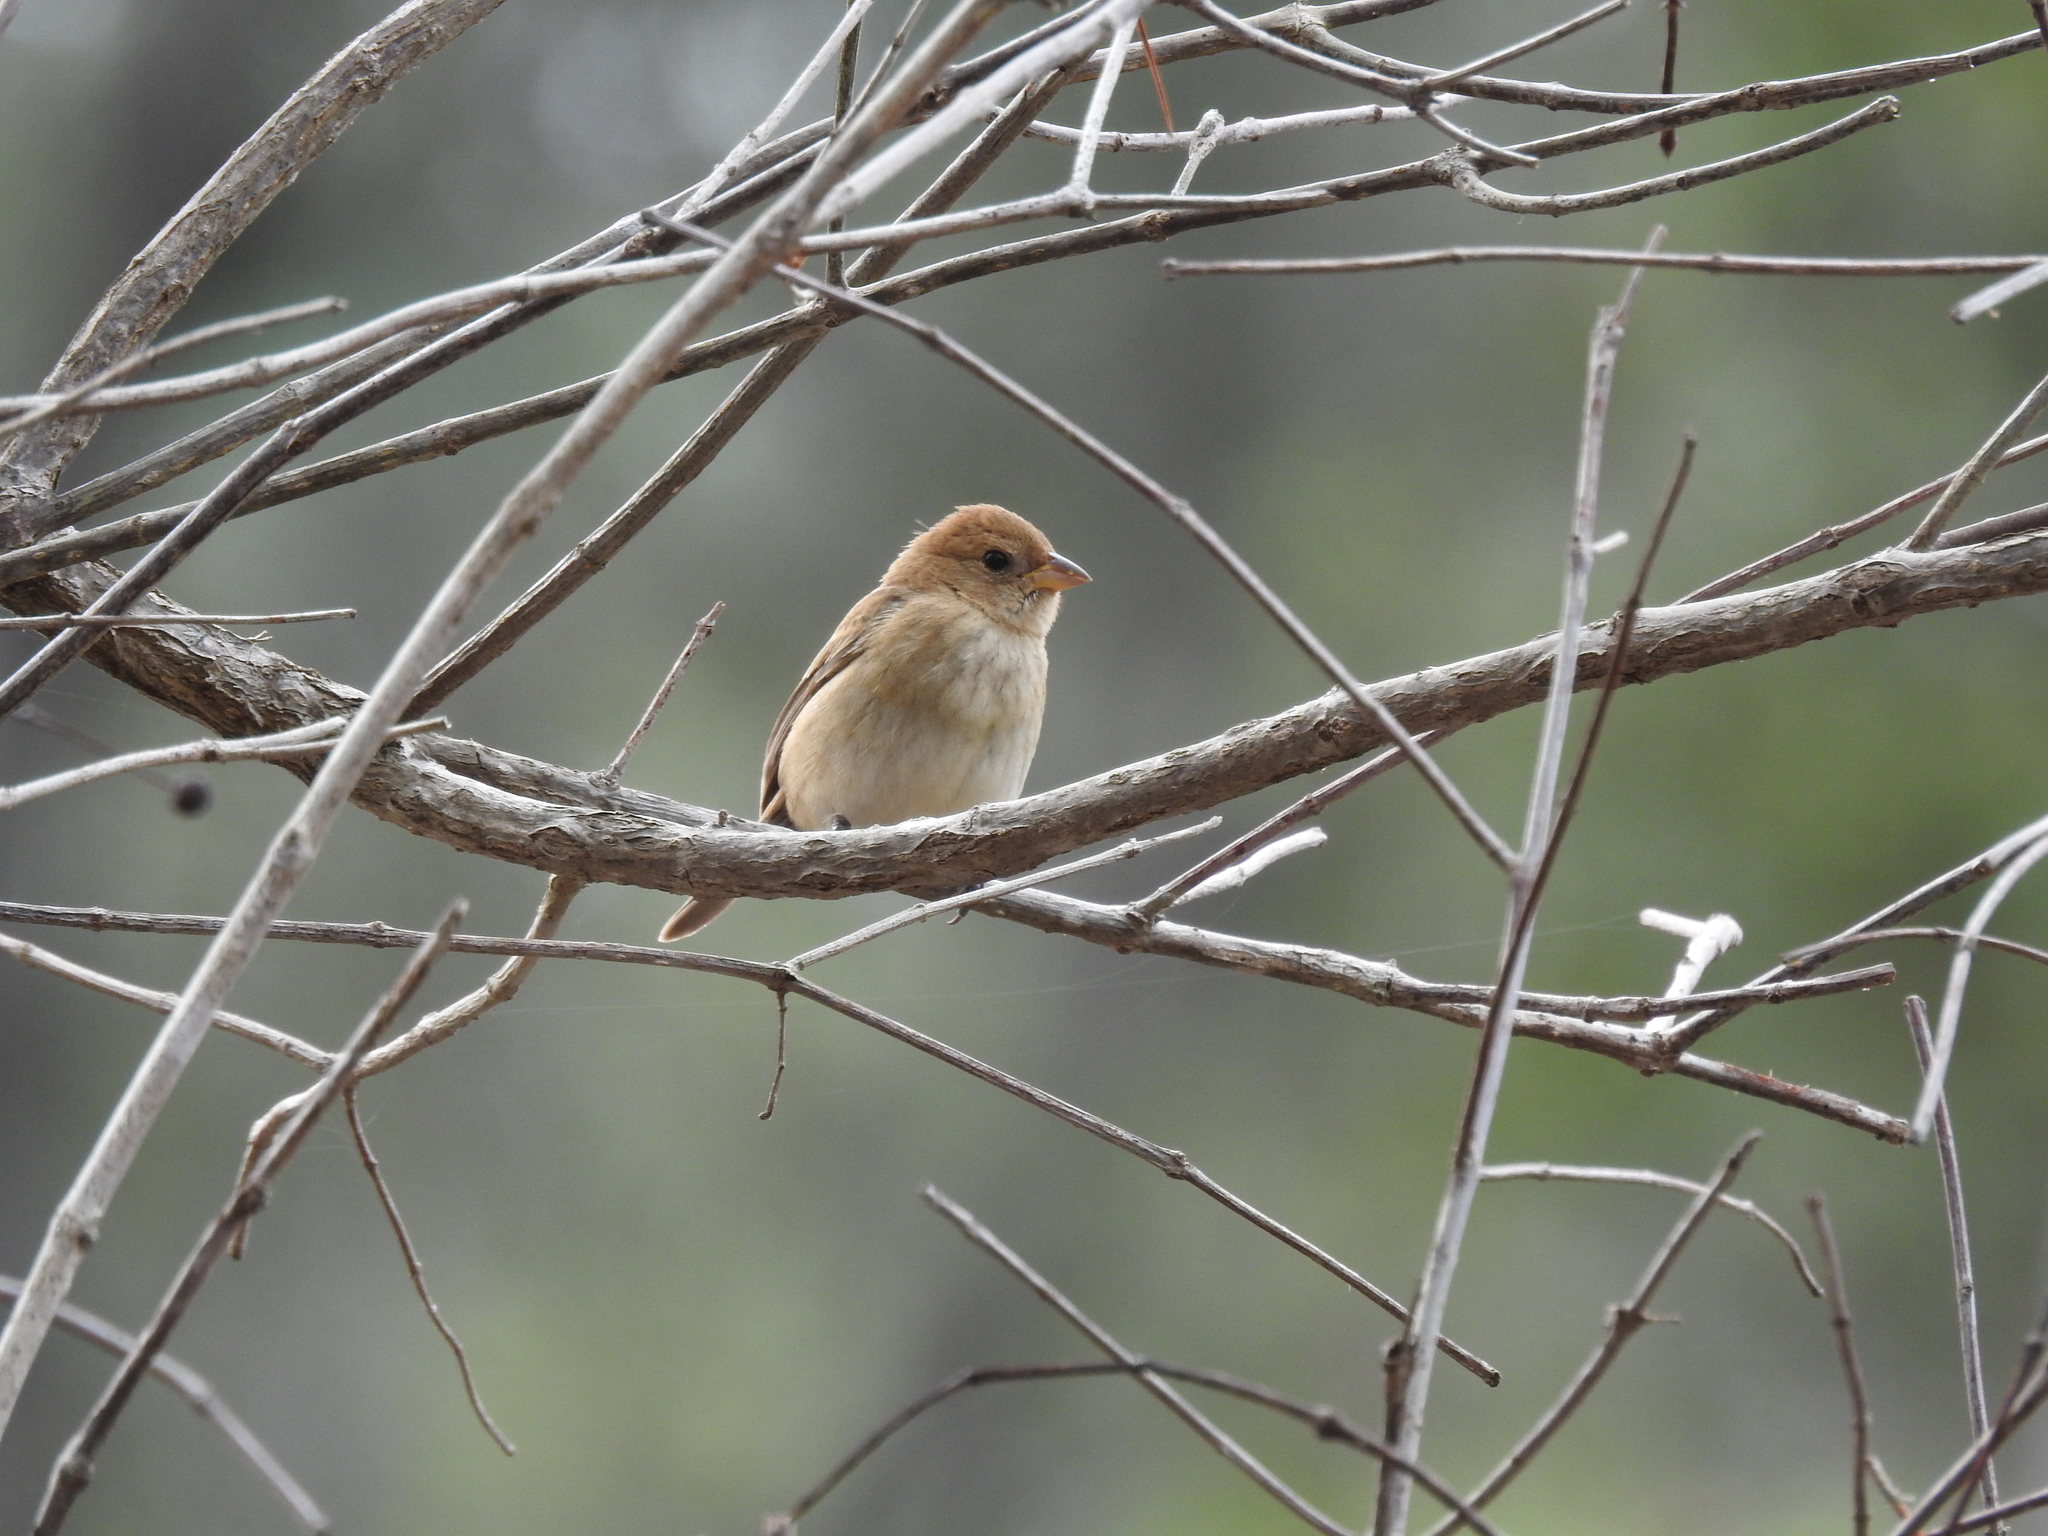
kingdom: Animalia
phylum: Chordata
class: Aves
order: Passeriformes
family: Cardinalidae
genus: Passerina
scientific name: Passerina cyanea
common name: Indigo bunting
